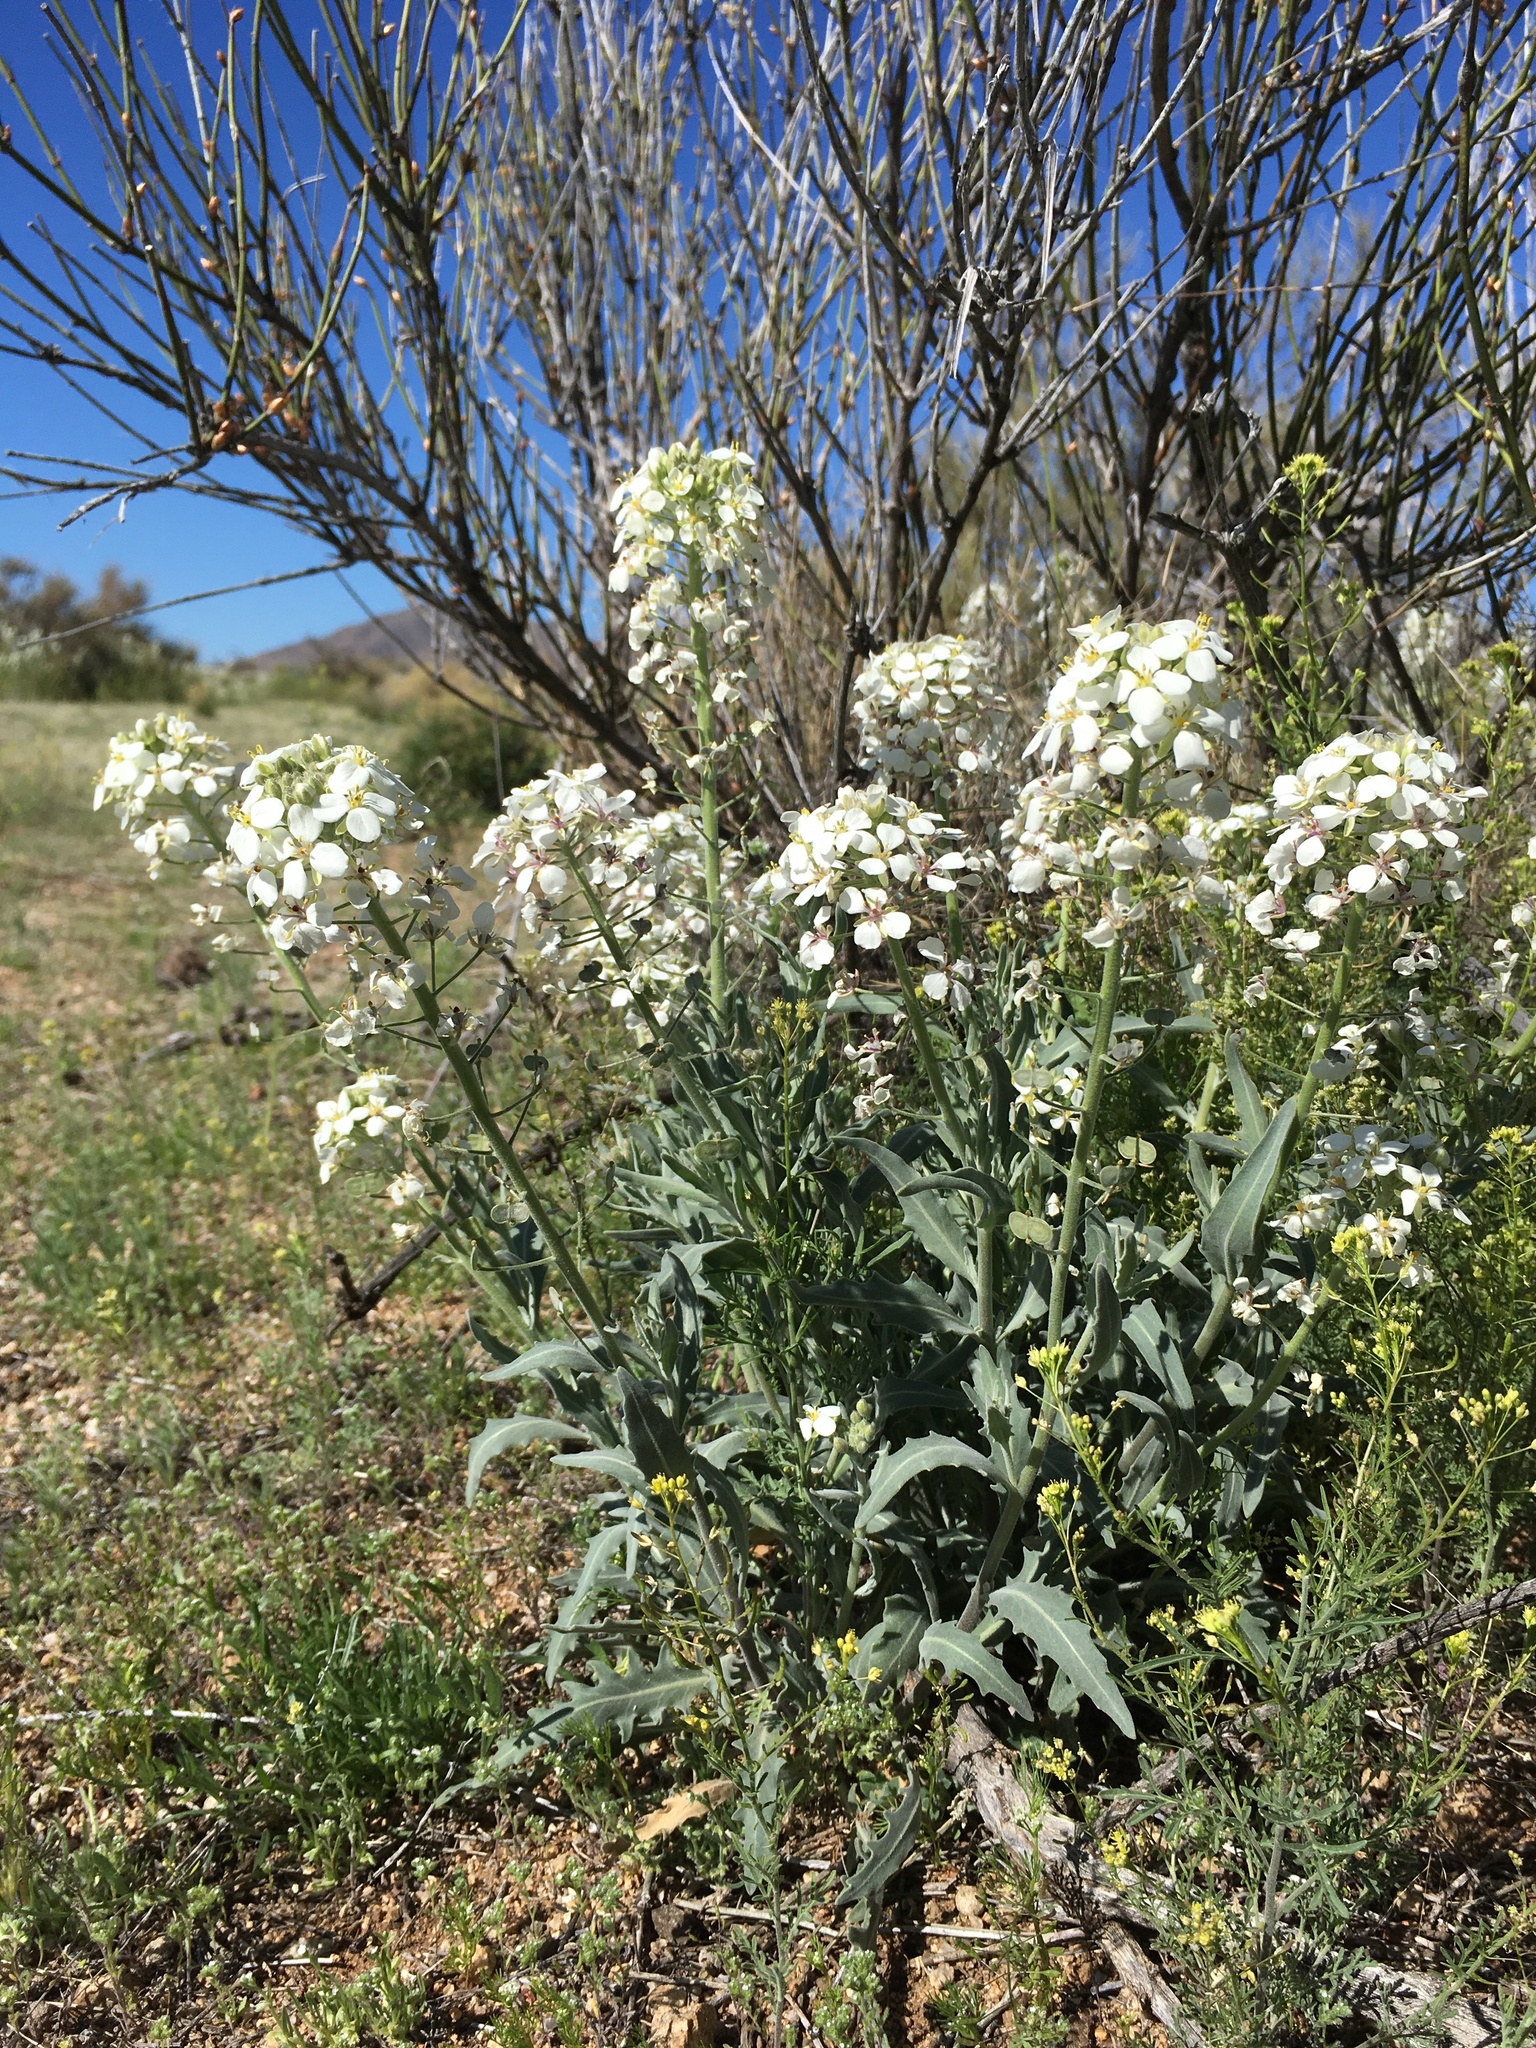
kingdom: Plantae
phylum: Tracheophyta
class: Magnoliopsida
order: Brassicales
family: Brassicaceae
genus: Dimorphocarpa
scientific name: Dimorphocarpa wislizenii
